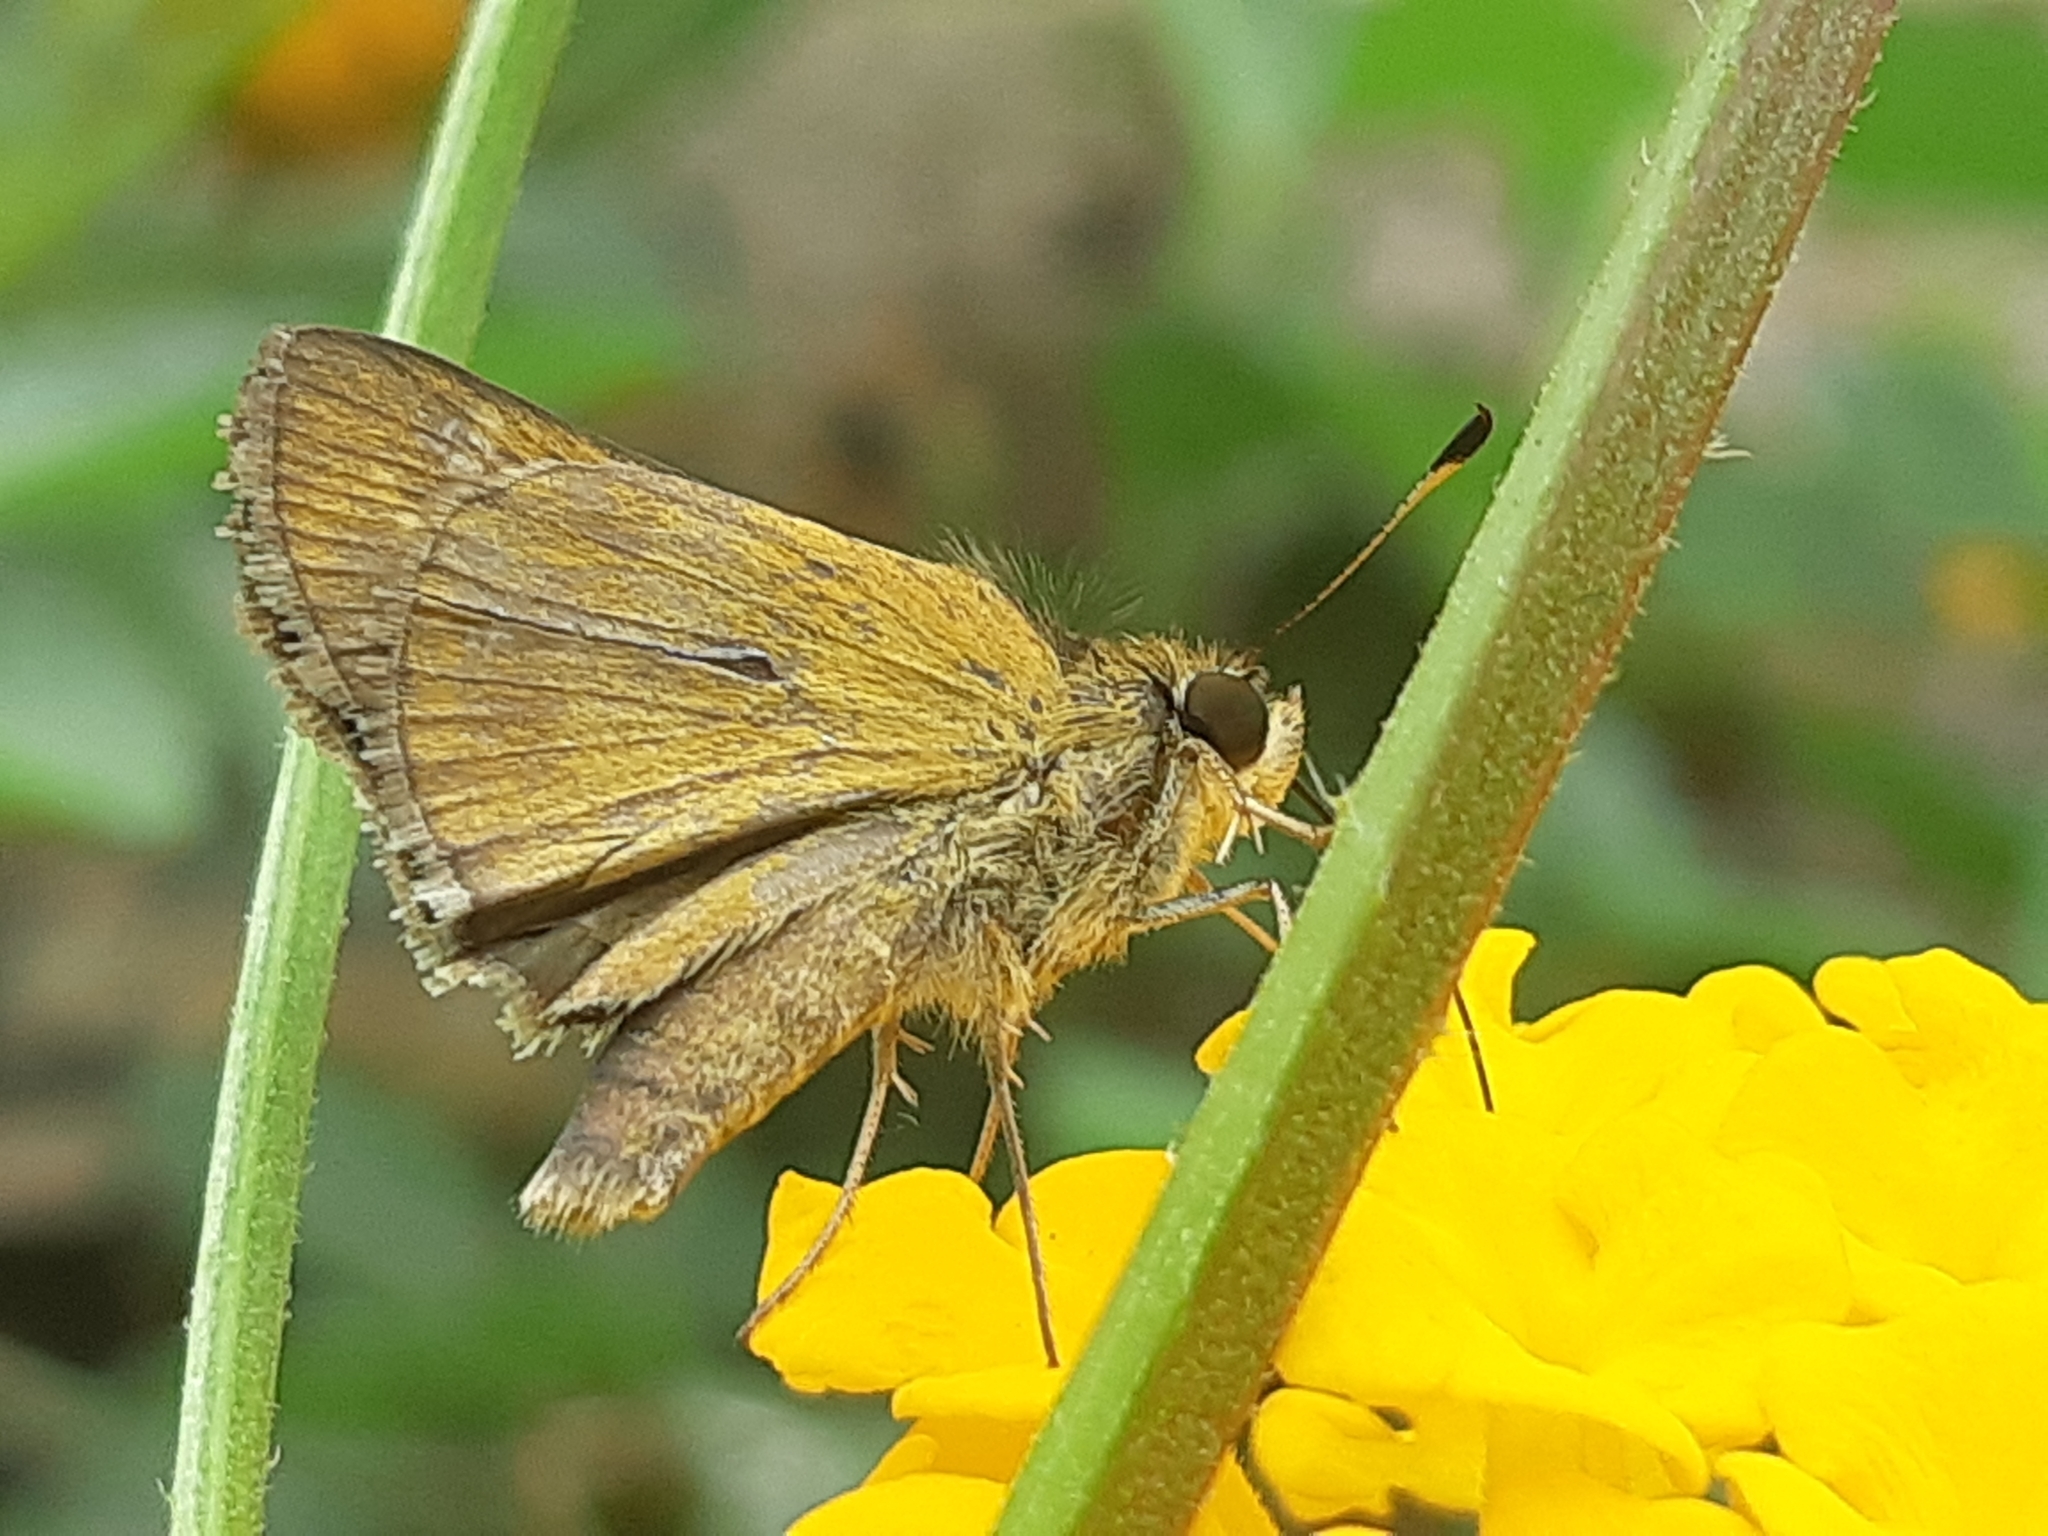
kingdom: Animalia
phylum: Arthropoda
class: Insecta
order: Lepidoptera
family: Hesperiidae
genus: Polites
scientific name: Polites vibex
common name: Whirlabout
